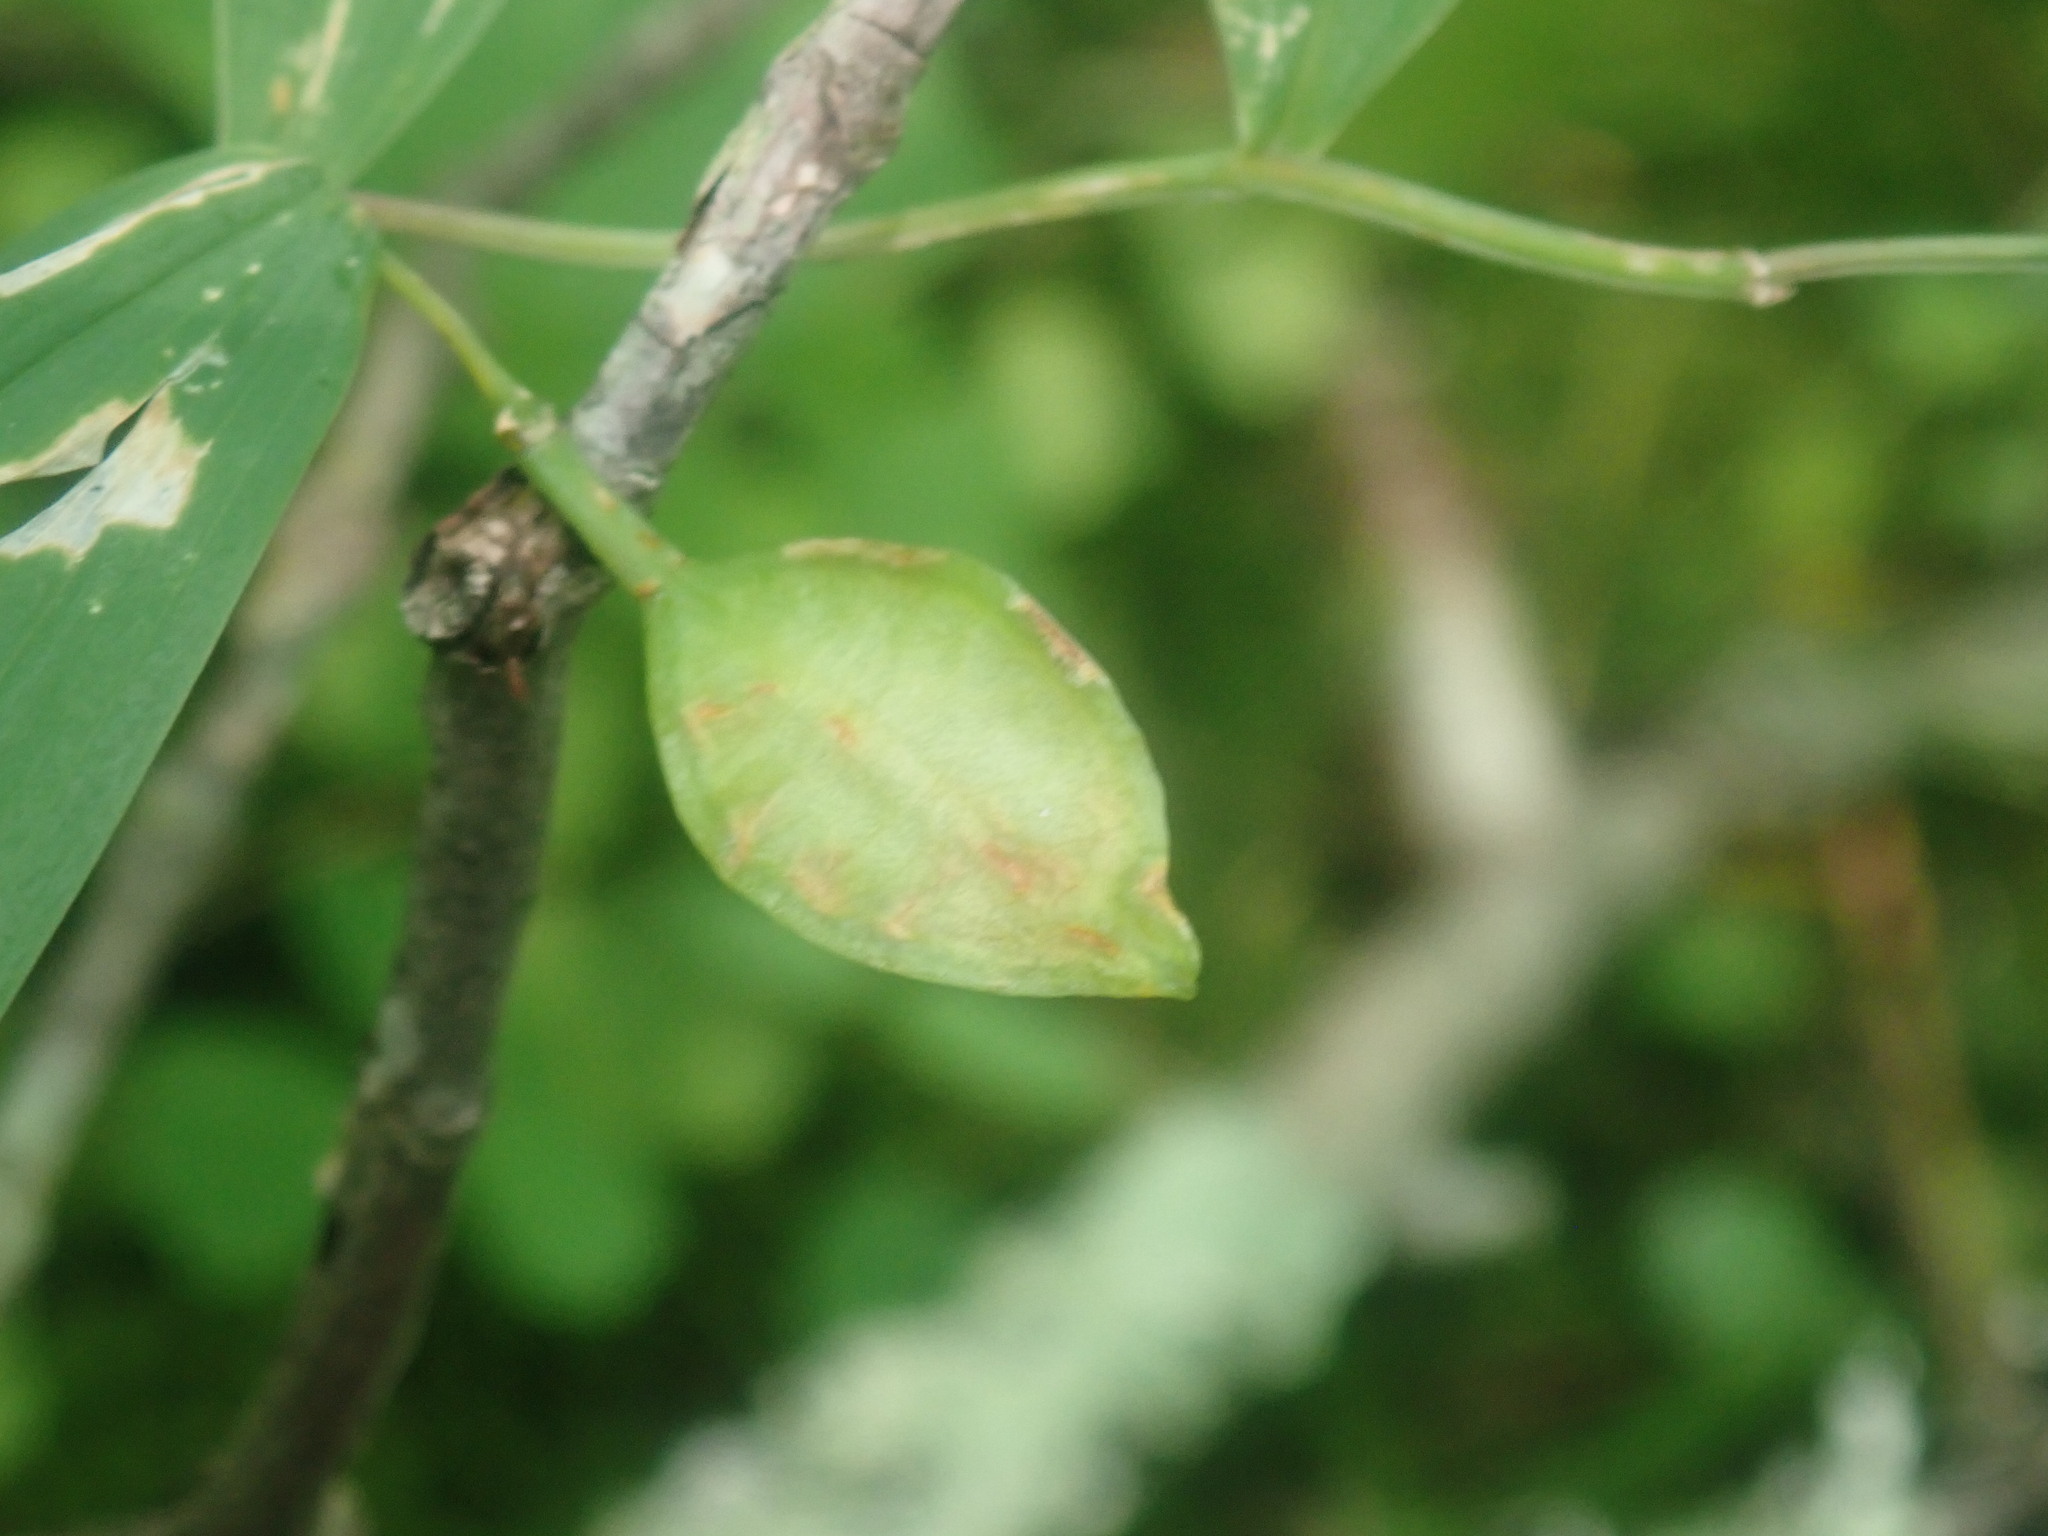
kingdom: Plantae
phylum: Tracheophyta
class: Liliopsida
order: Liliales
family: Colchicaceae
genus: Uvularia
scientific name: Uvularia sessilifolia
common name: Straw-lily
